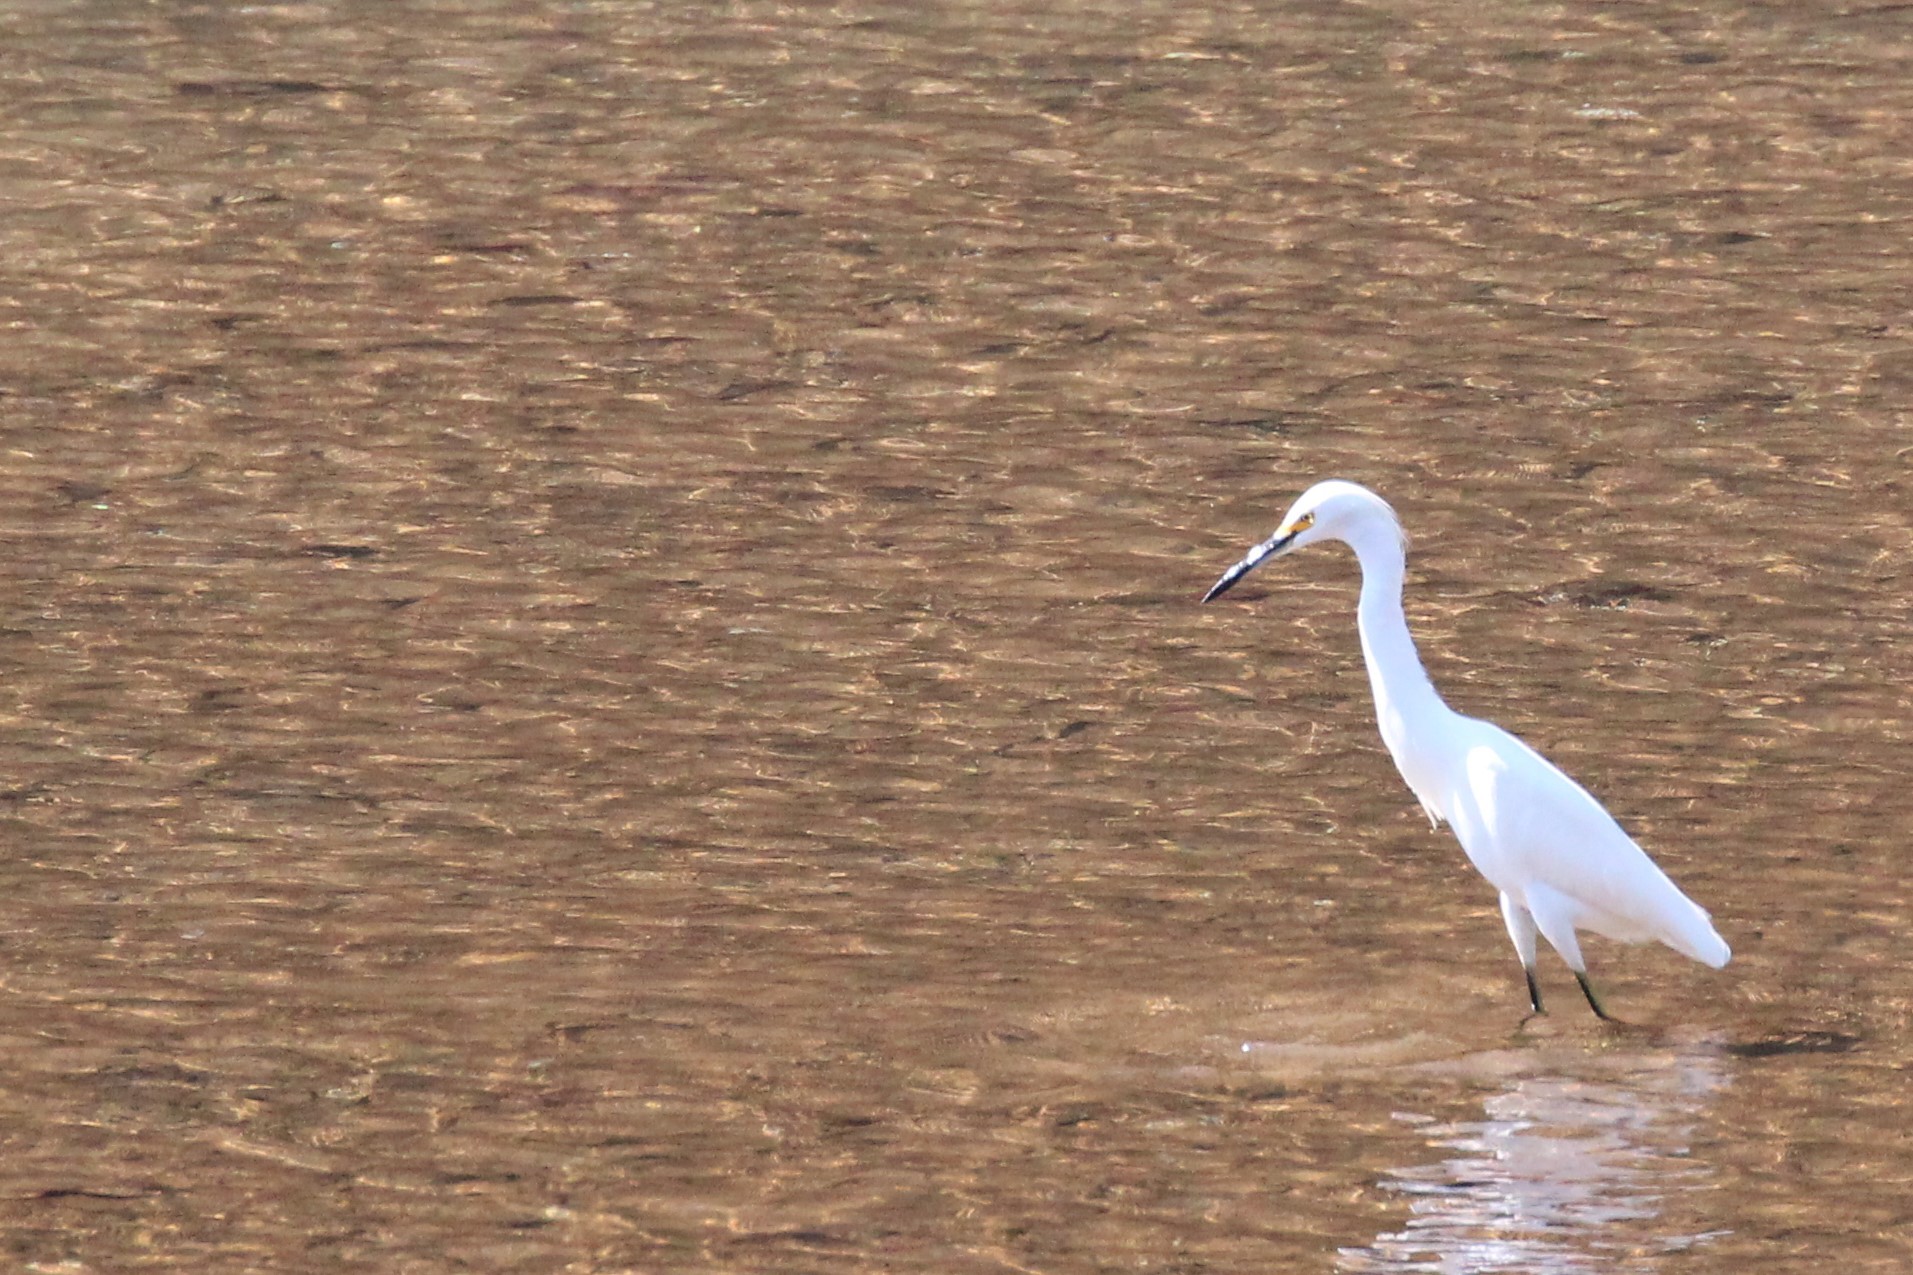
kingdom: Animalia
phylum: Chordata
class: Aves
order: Pelecaniformes
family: Ardeidae
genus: Egretta
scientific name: Egretta thula
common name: Snowy egret
